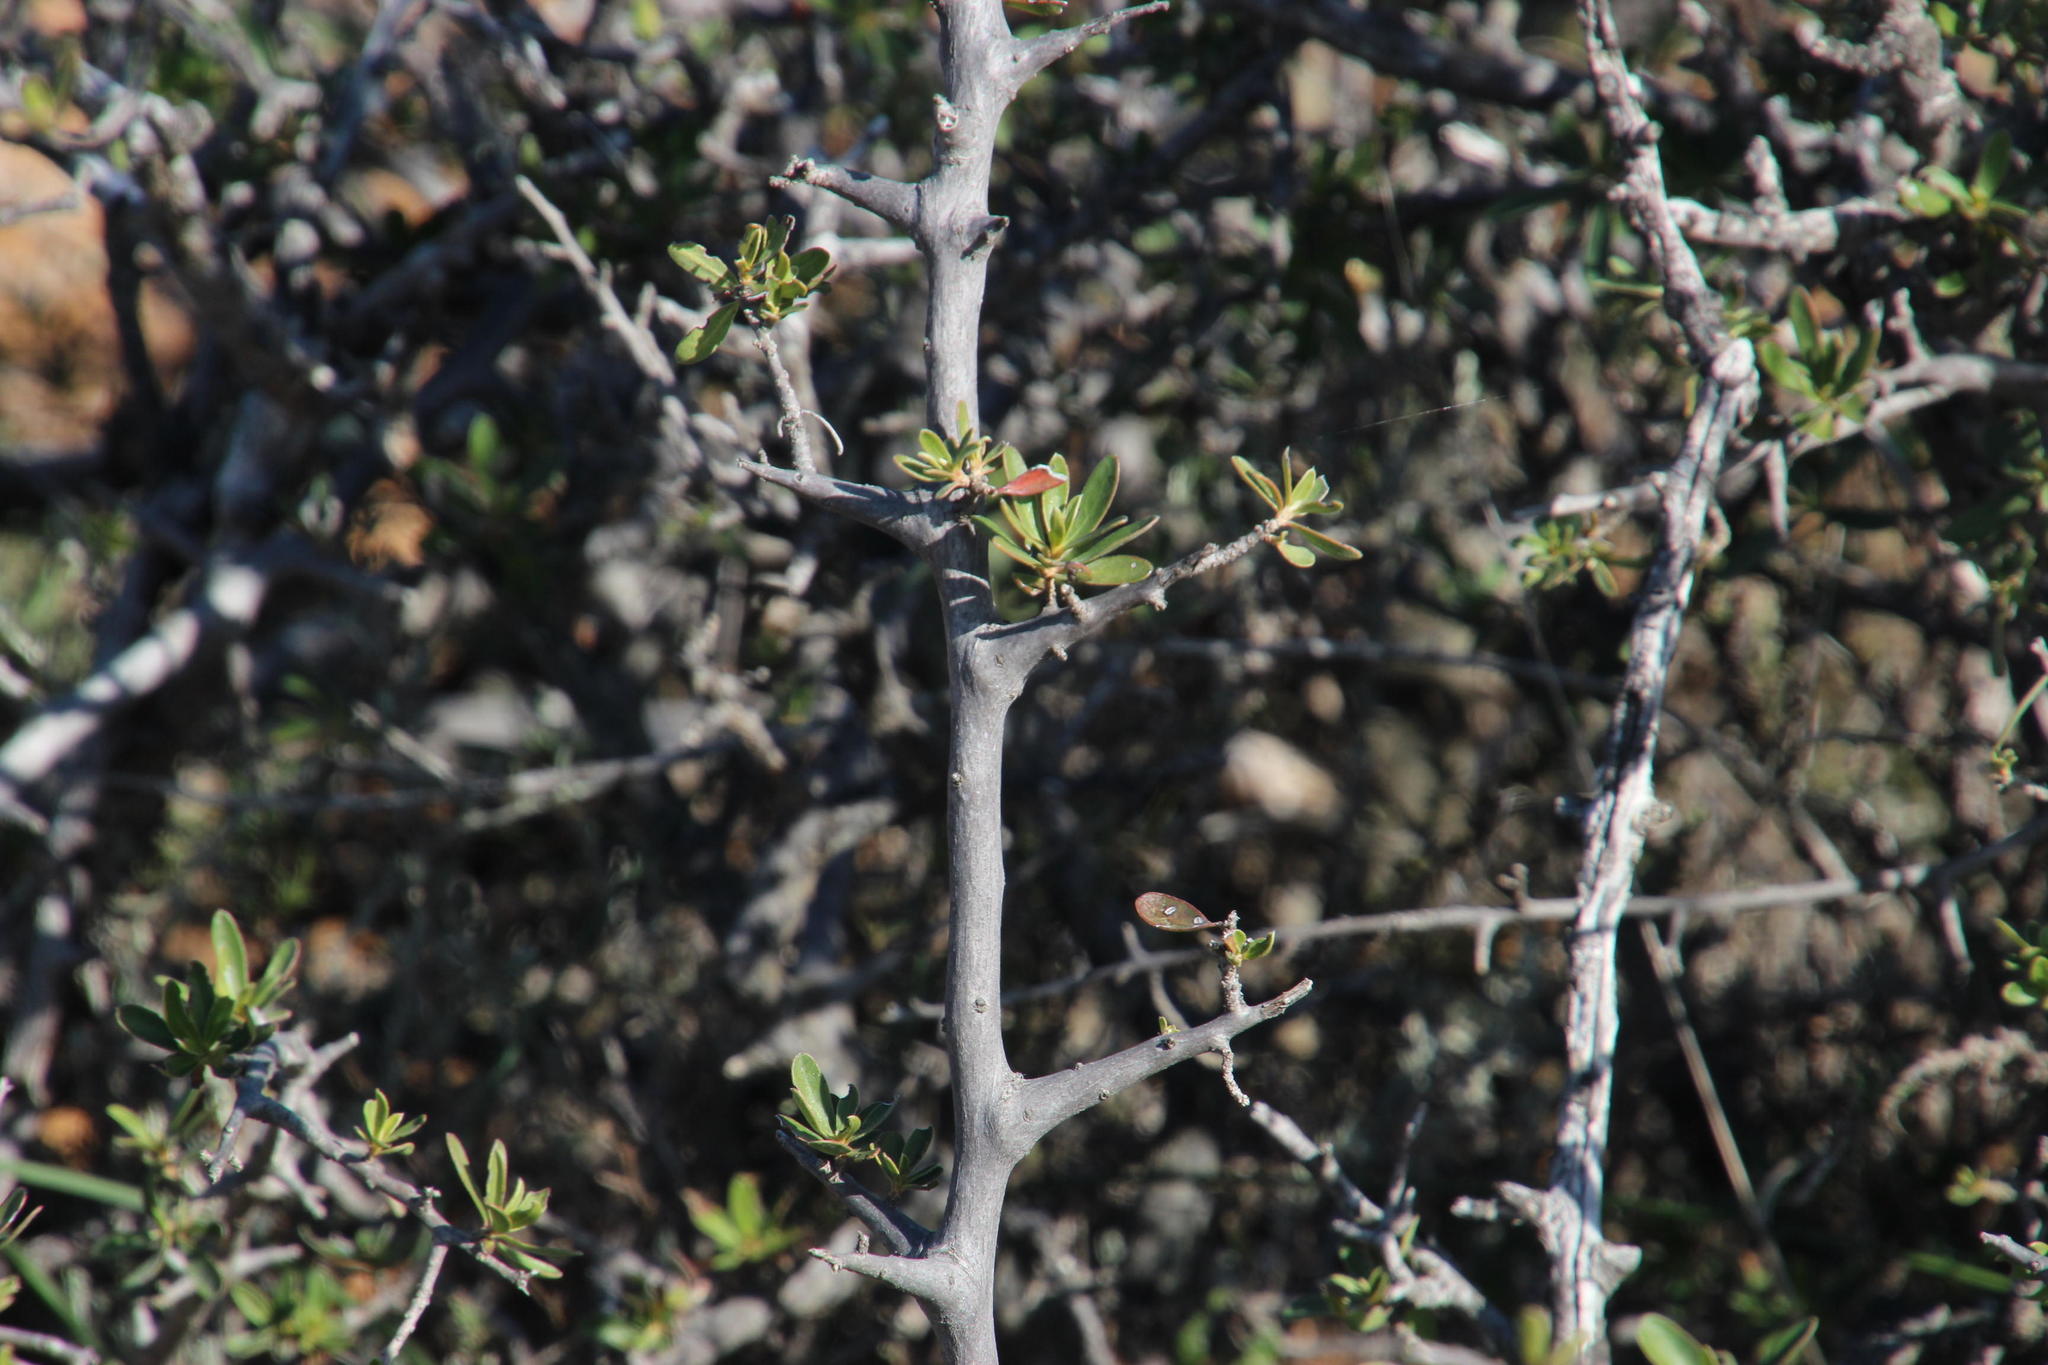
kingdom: Plantae
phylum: Tracheophyta
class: Magnoliopsida
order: Ericales
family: Ebenaceae
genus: Diospyros
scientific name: Diospyros lycioides
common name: Red star apple
